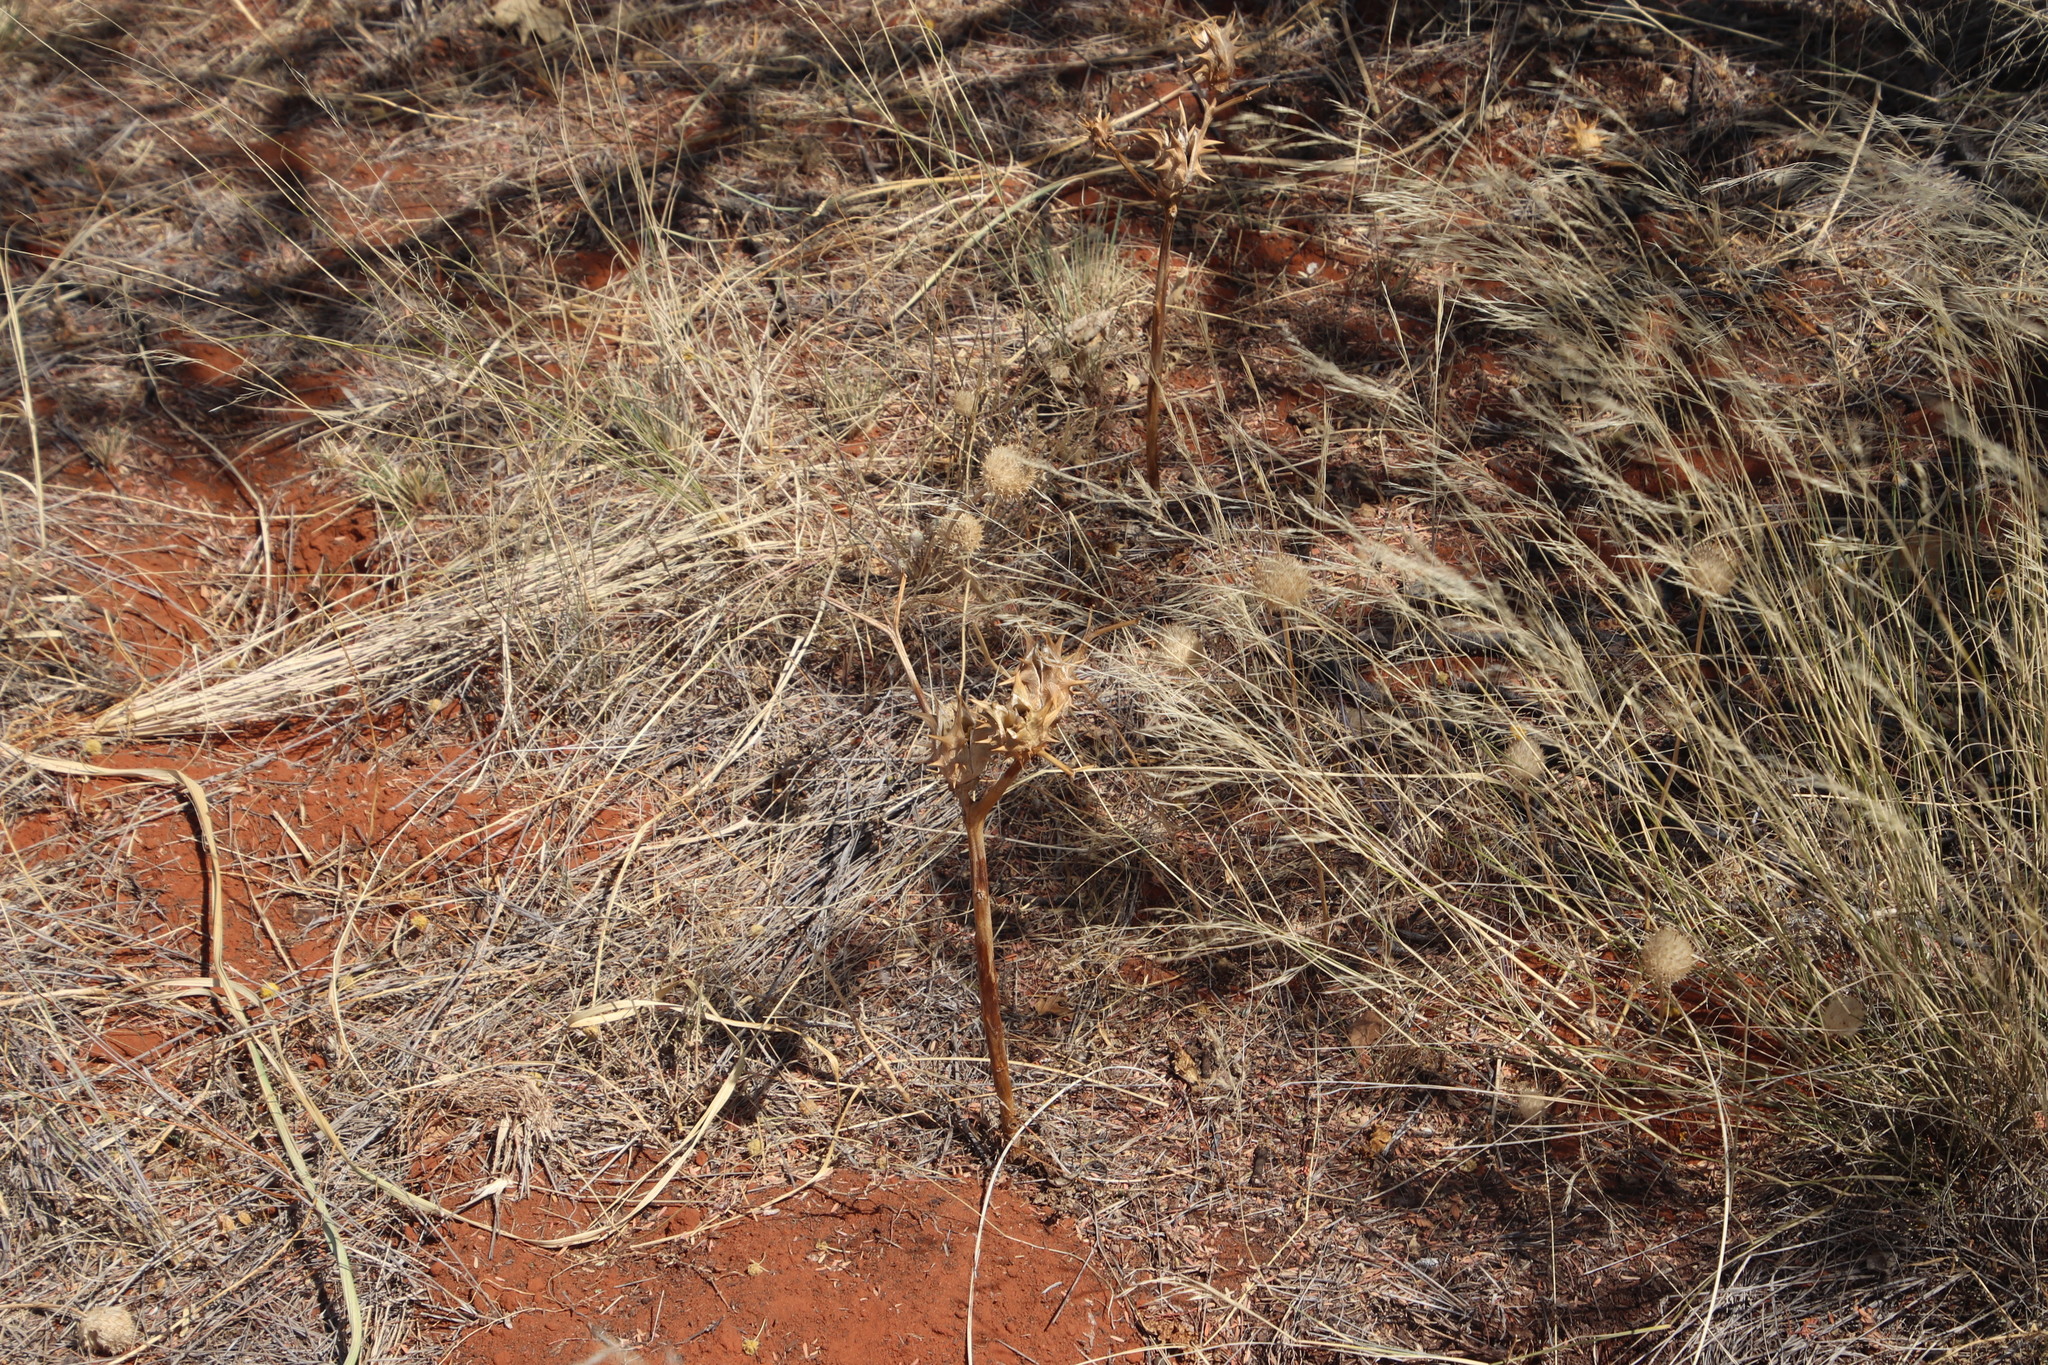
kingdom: Plantae
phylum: Tracheophyta
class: Magnoliopsida
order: Solanales
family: Solanaceae
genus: Datura
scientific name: Datura ferox
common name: Angel's-trumpets
